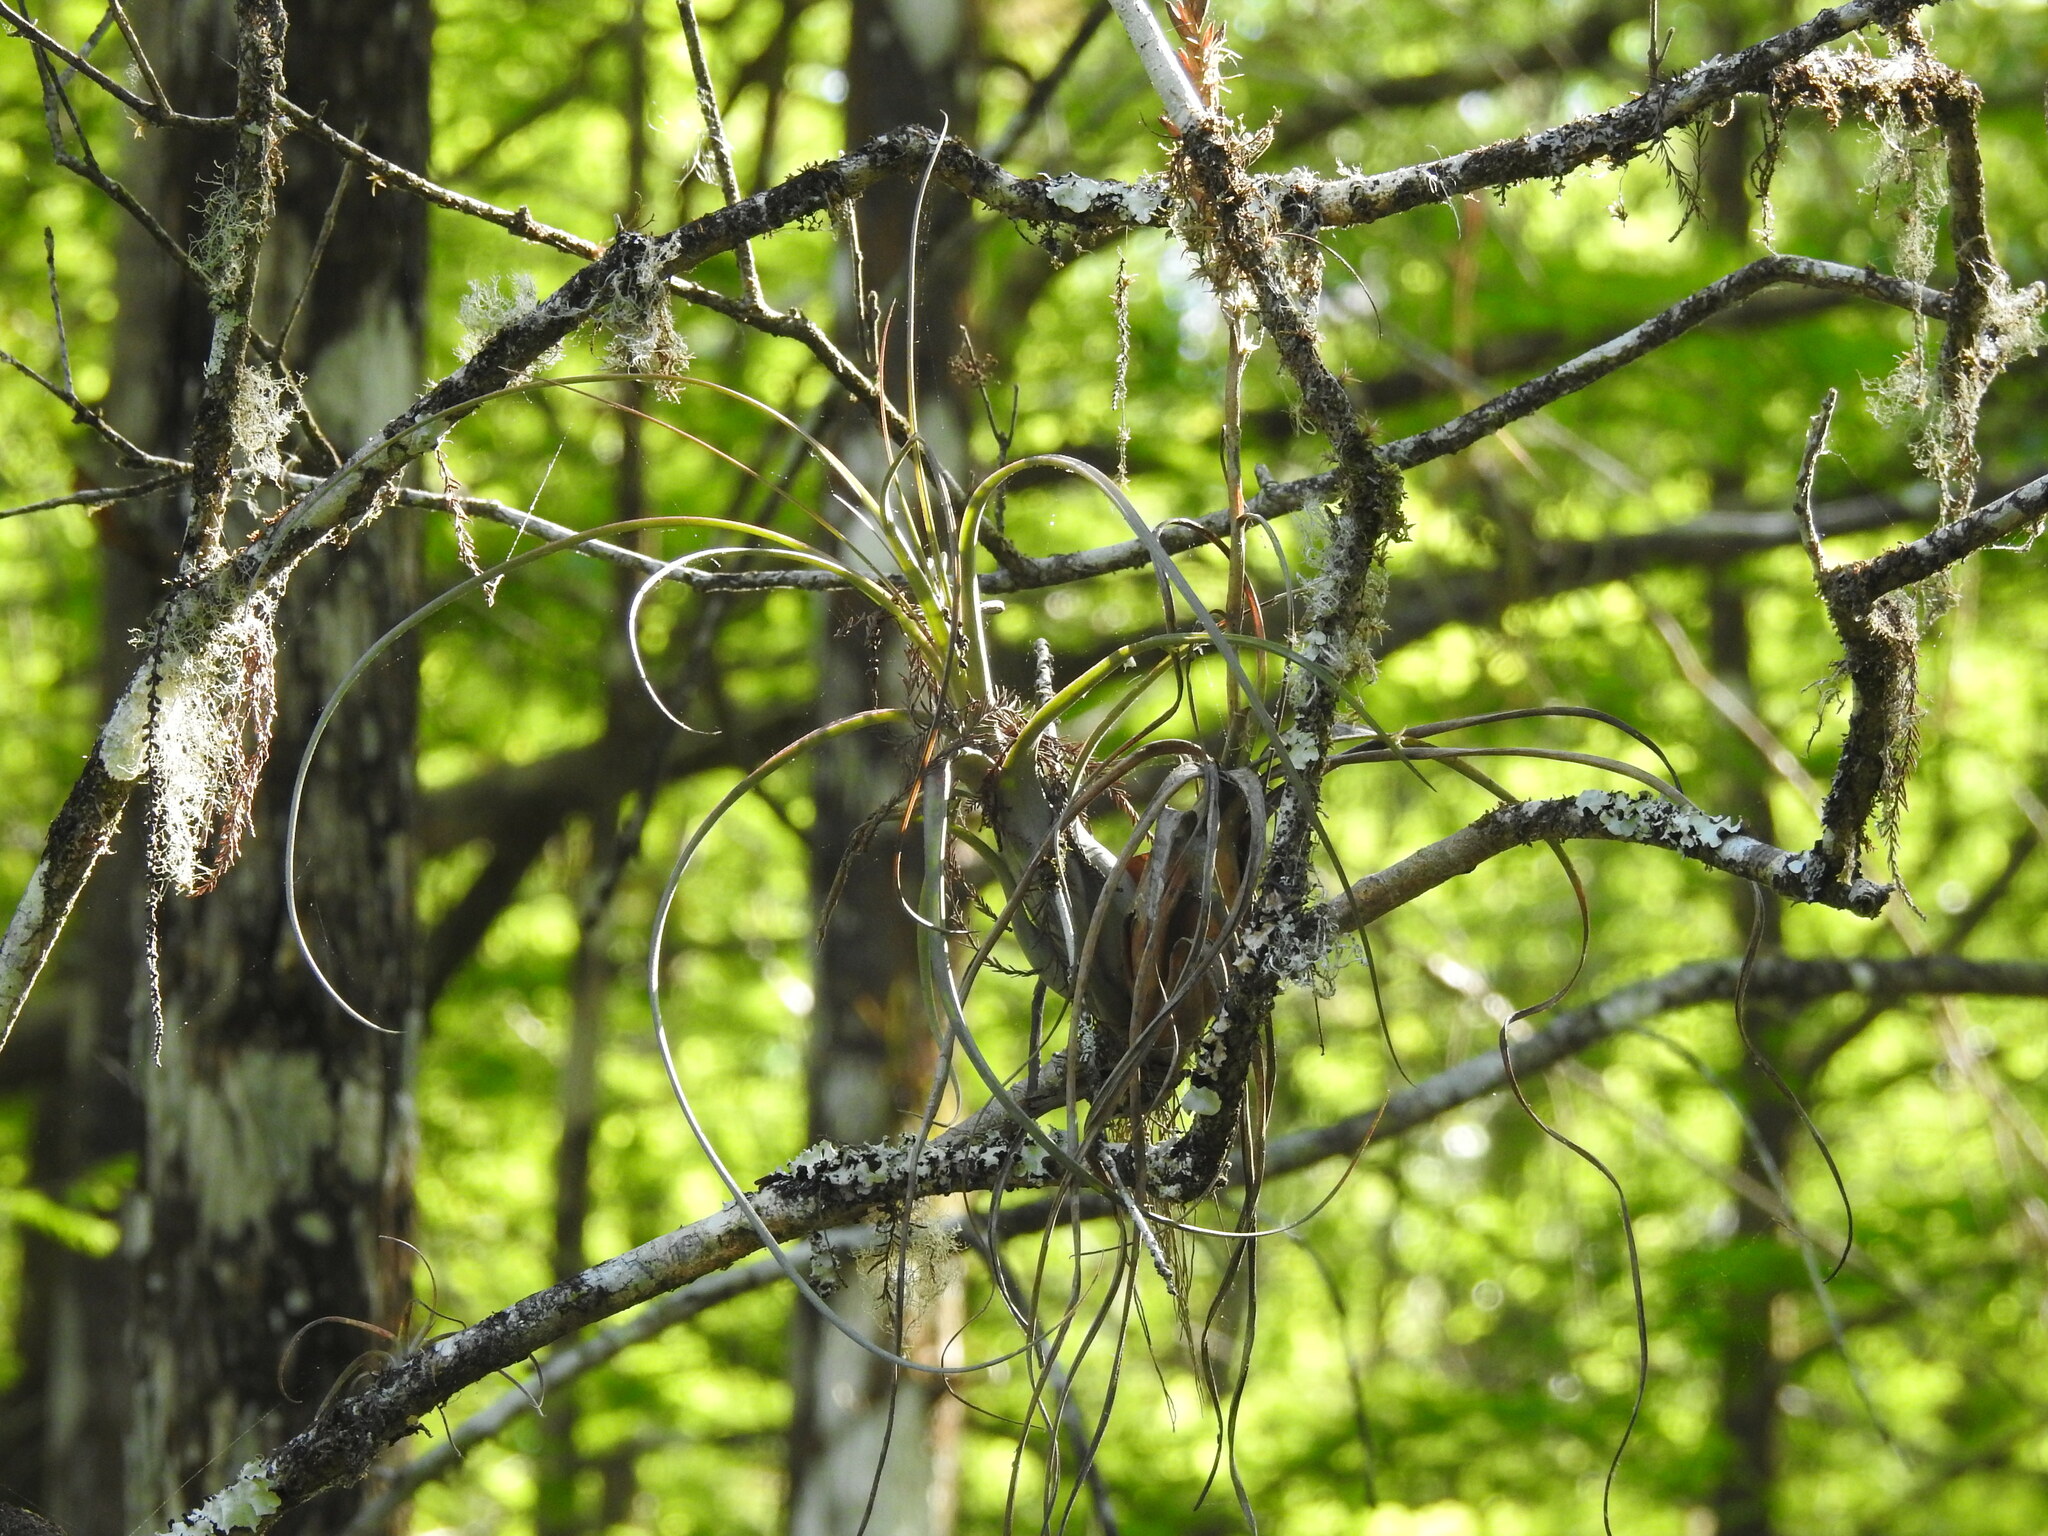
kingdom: Plantae
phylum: Tracheophyta
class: Liliopsida
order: Poales
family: Bromeliaceae
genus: Tillandsia
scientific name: Tillandsia balbisiana
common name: Northern needleleaf
